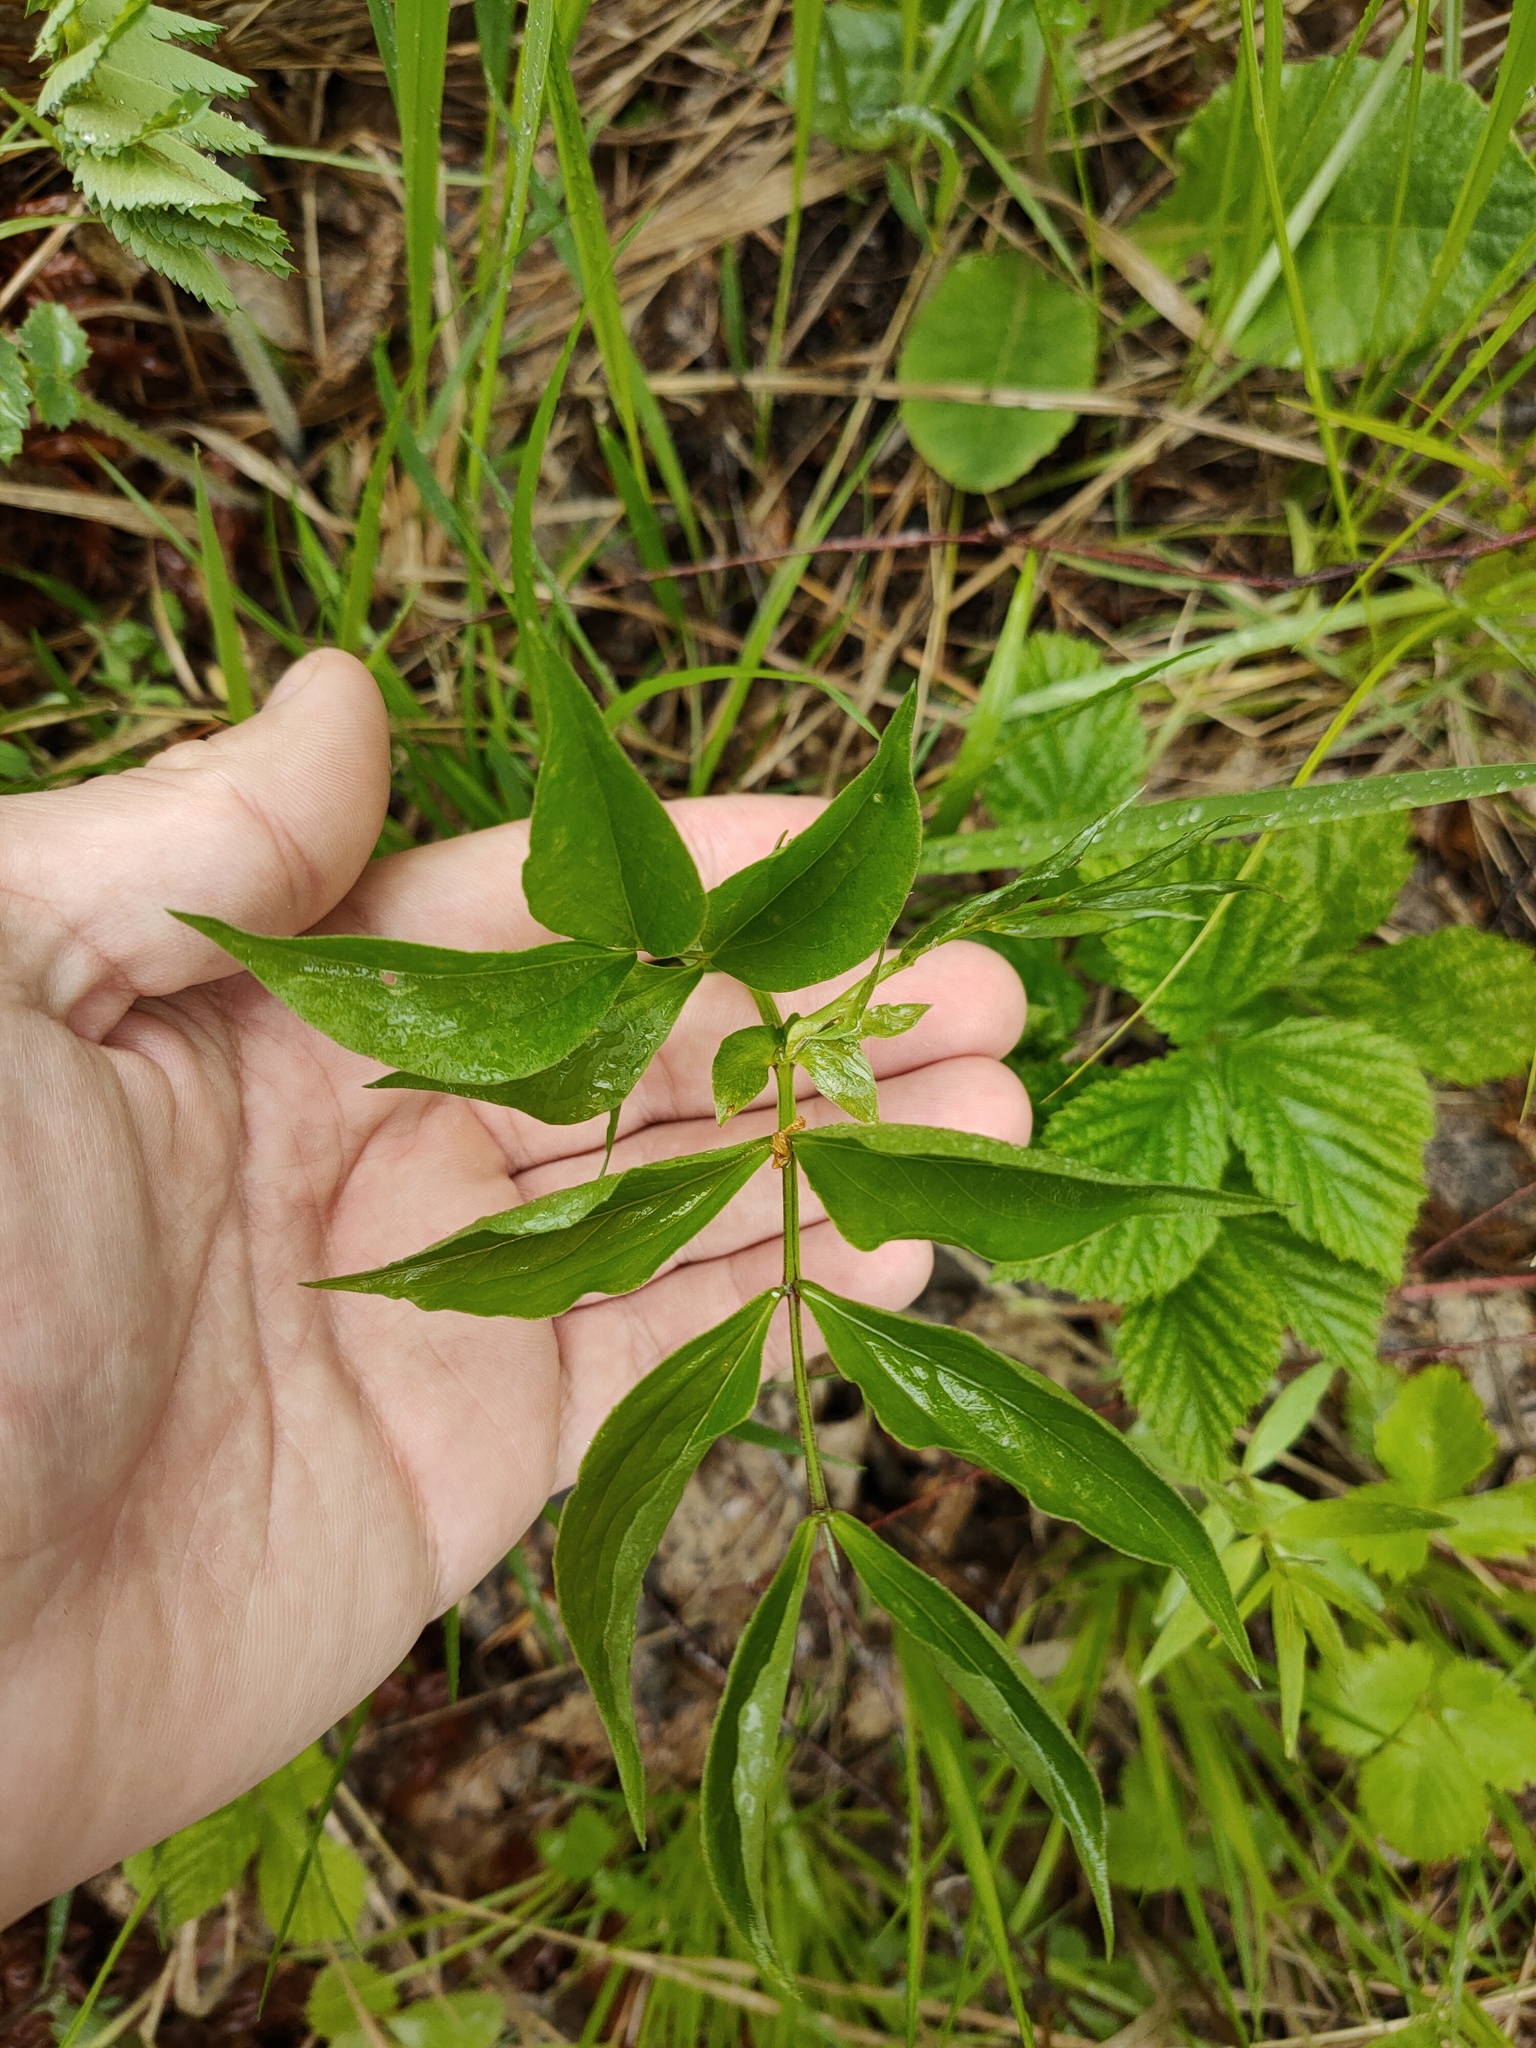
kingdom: Plantae
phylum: Tracheophyta
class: Magnoliopsida
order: Fabales
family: Fabaceae
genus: Lathyrus
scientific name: Lathyrus vernus
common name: Spring pea
